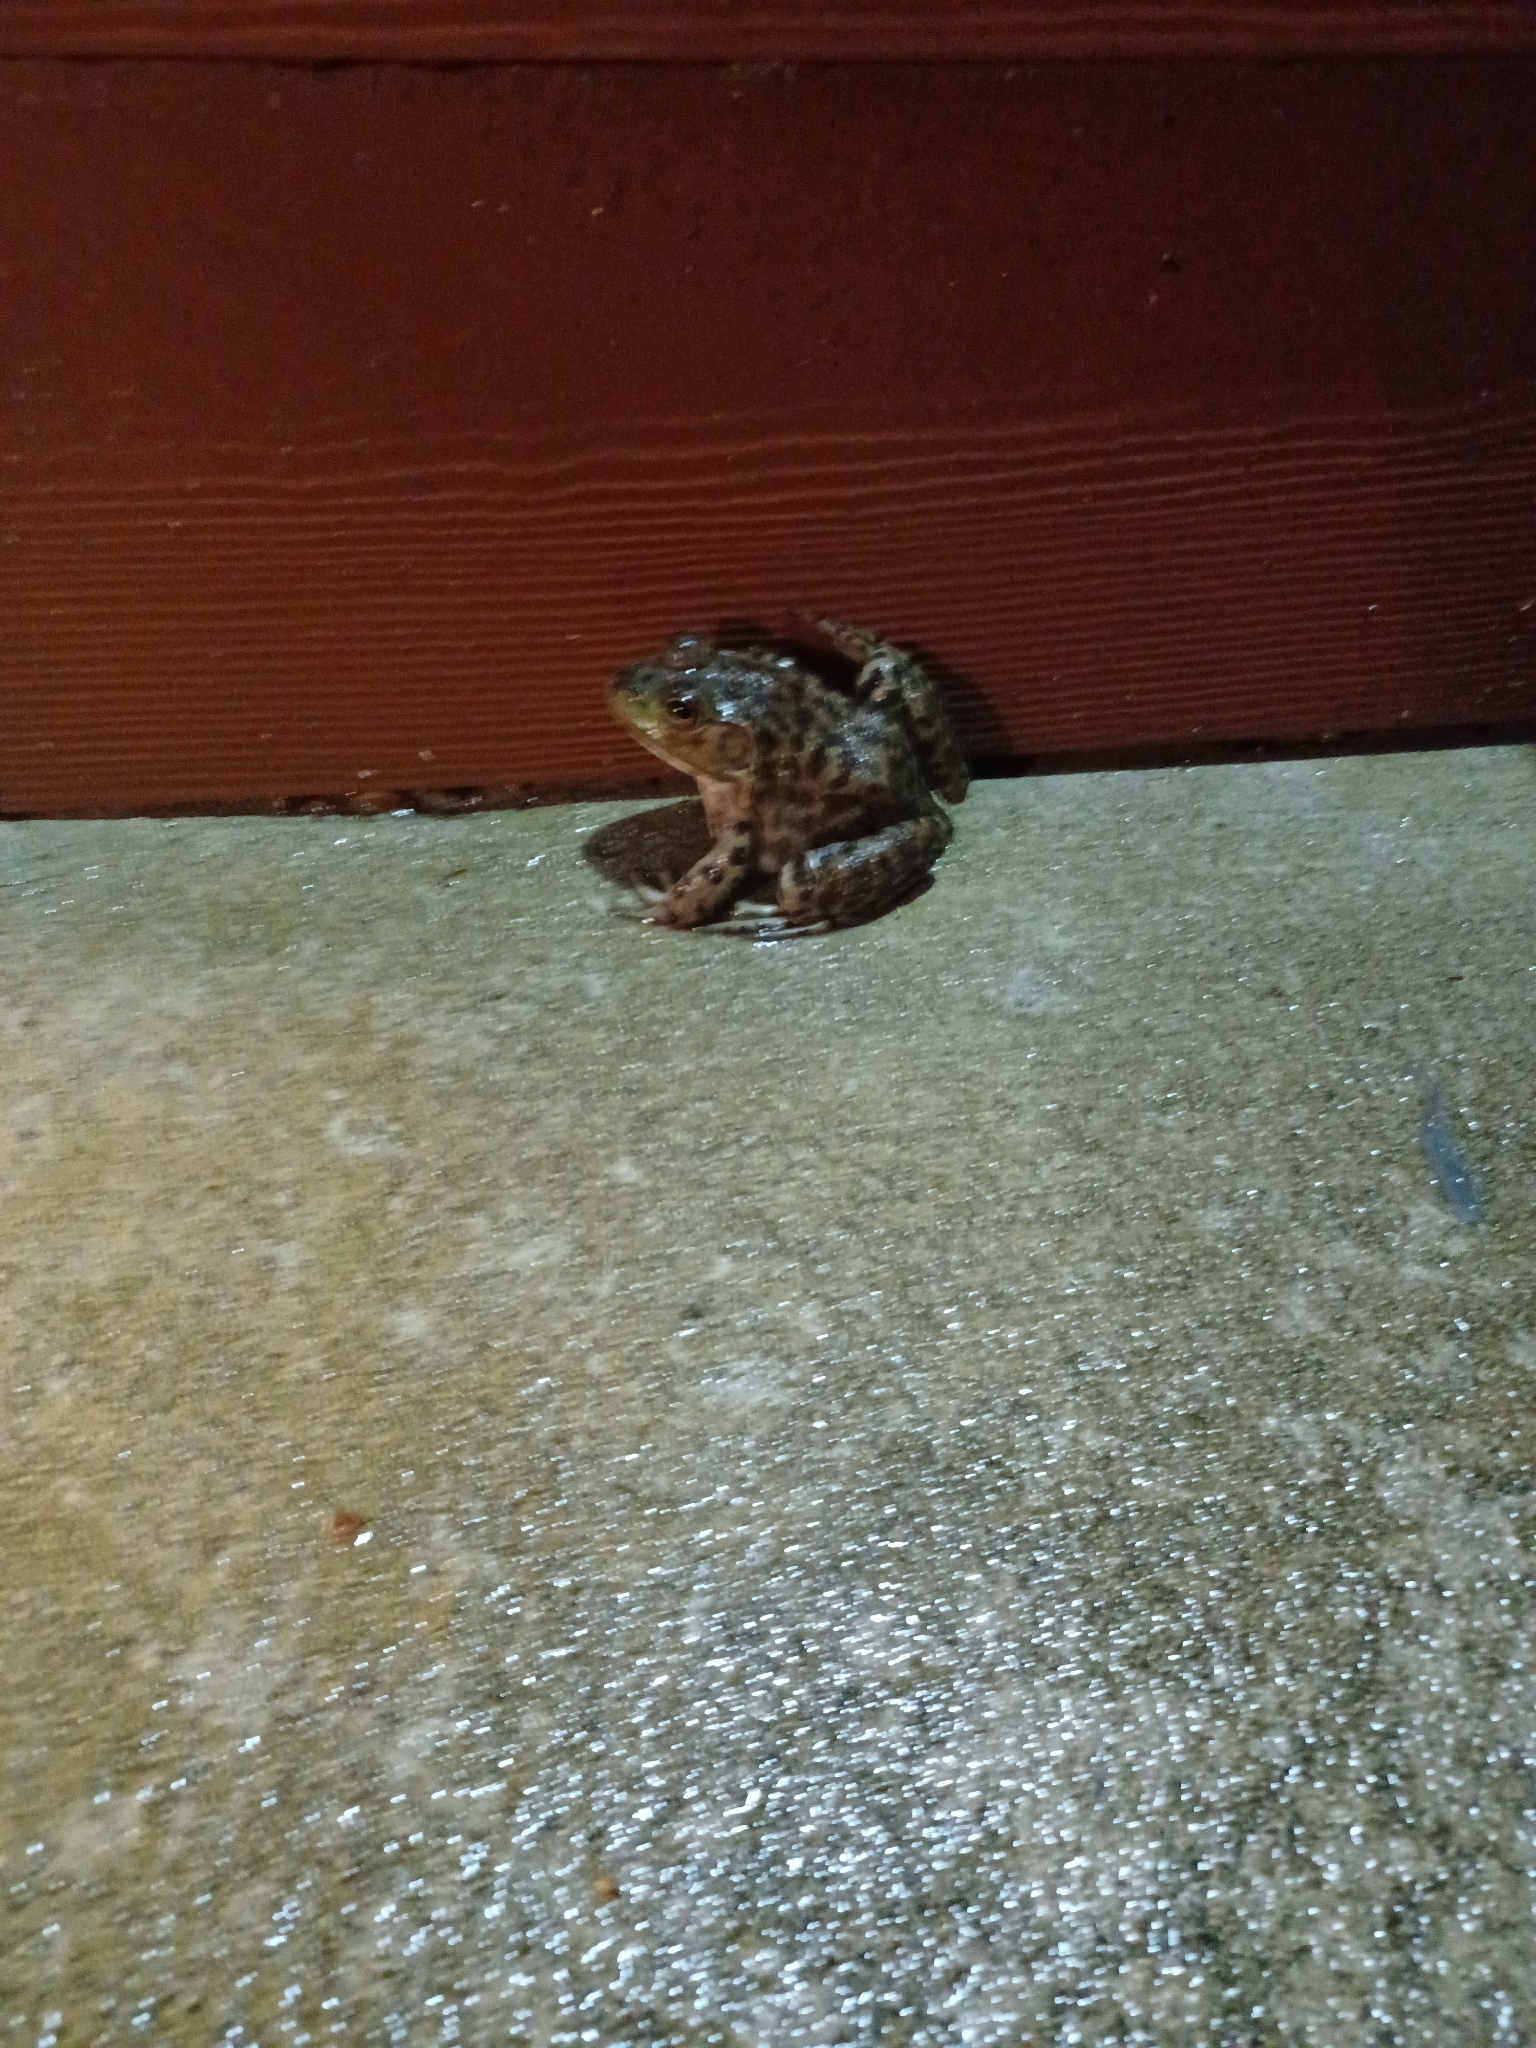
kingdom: Animalia
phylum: Chordata
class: Amphibia
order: Anura
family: Ranidae
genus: Lithobates
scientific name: Lithobates catesbeianus
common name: American bullfrog
